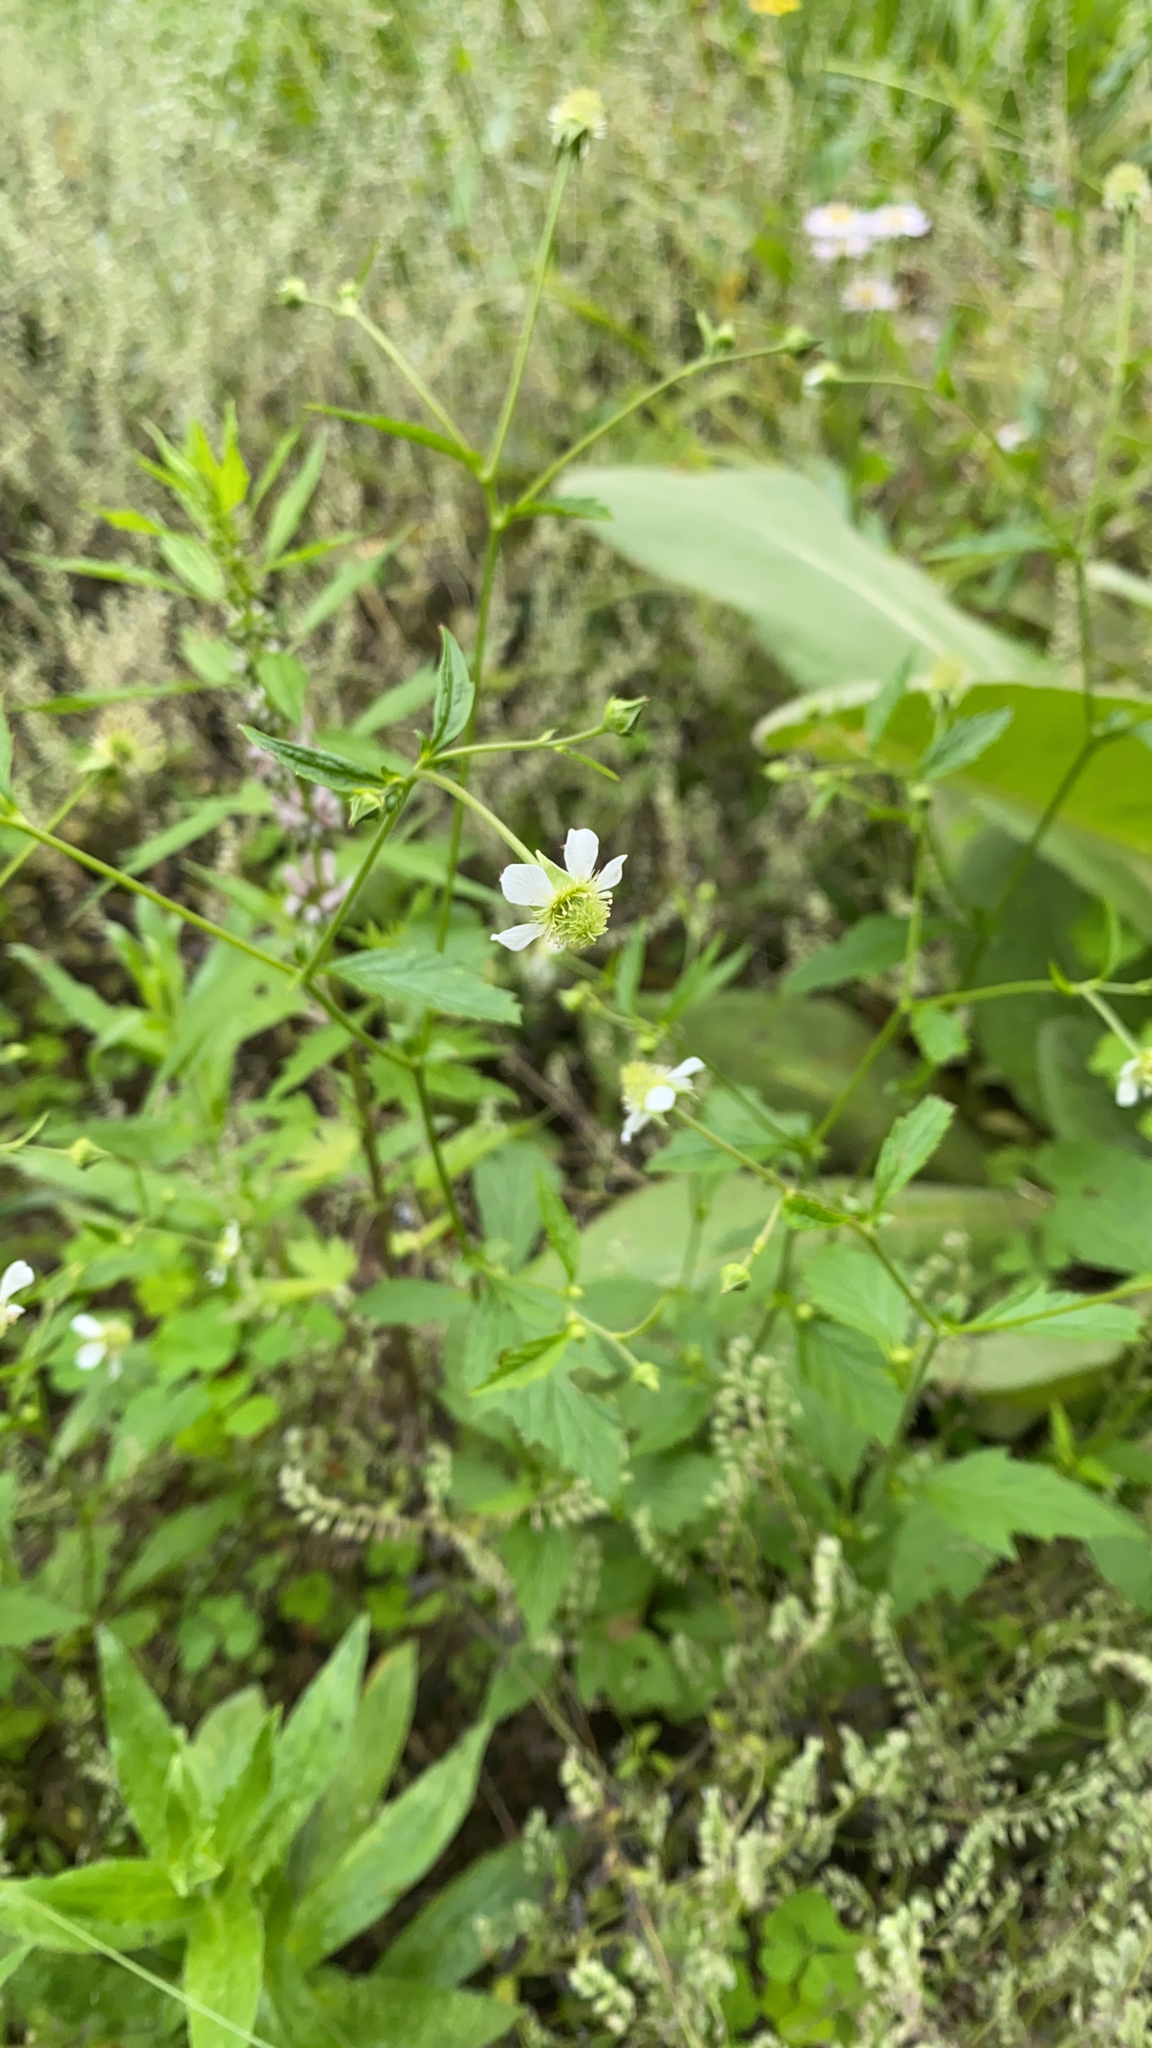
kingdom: Plantae
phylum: Tracheophyta
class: Magnoliopsida
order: Rosales
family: Rosaceae
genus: Geum
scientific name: Geum canadense
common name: White avens
